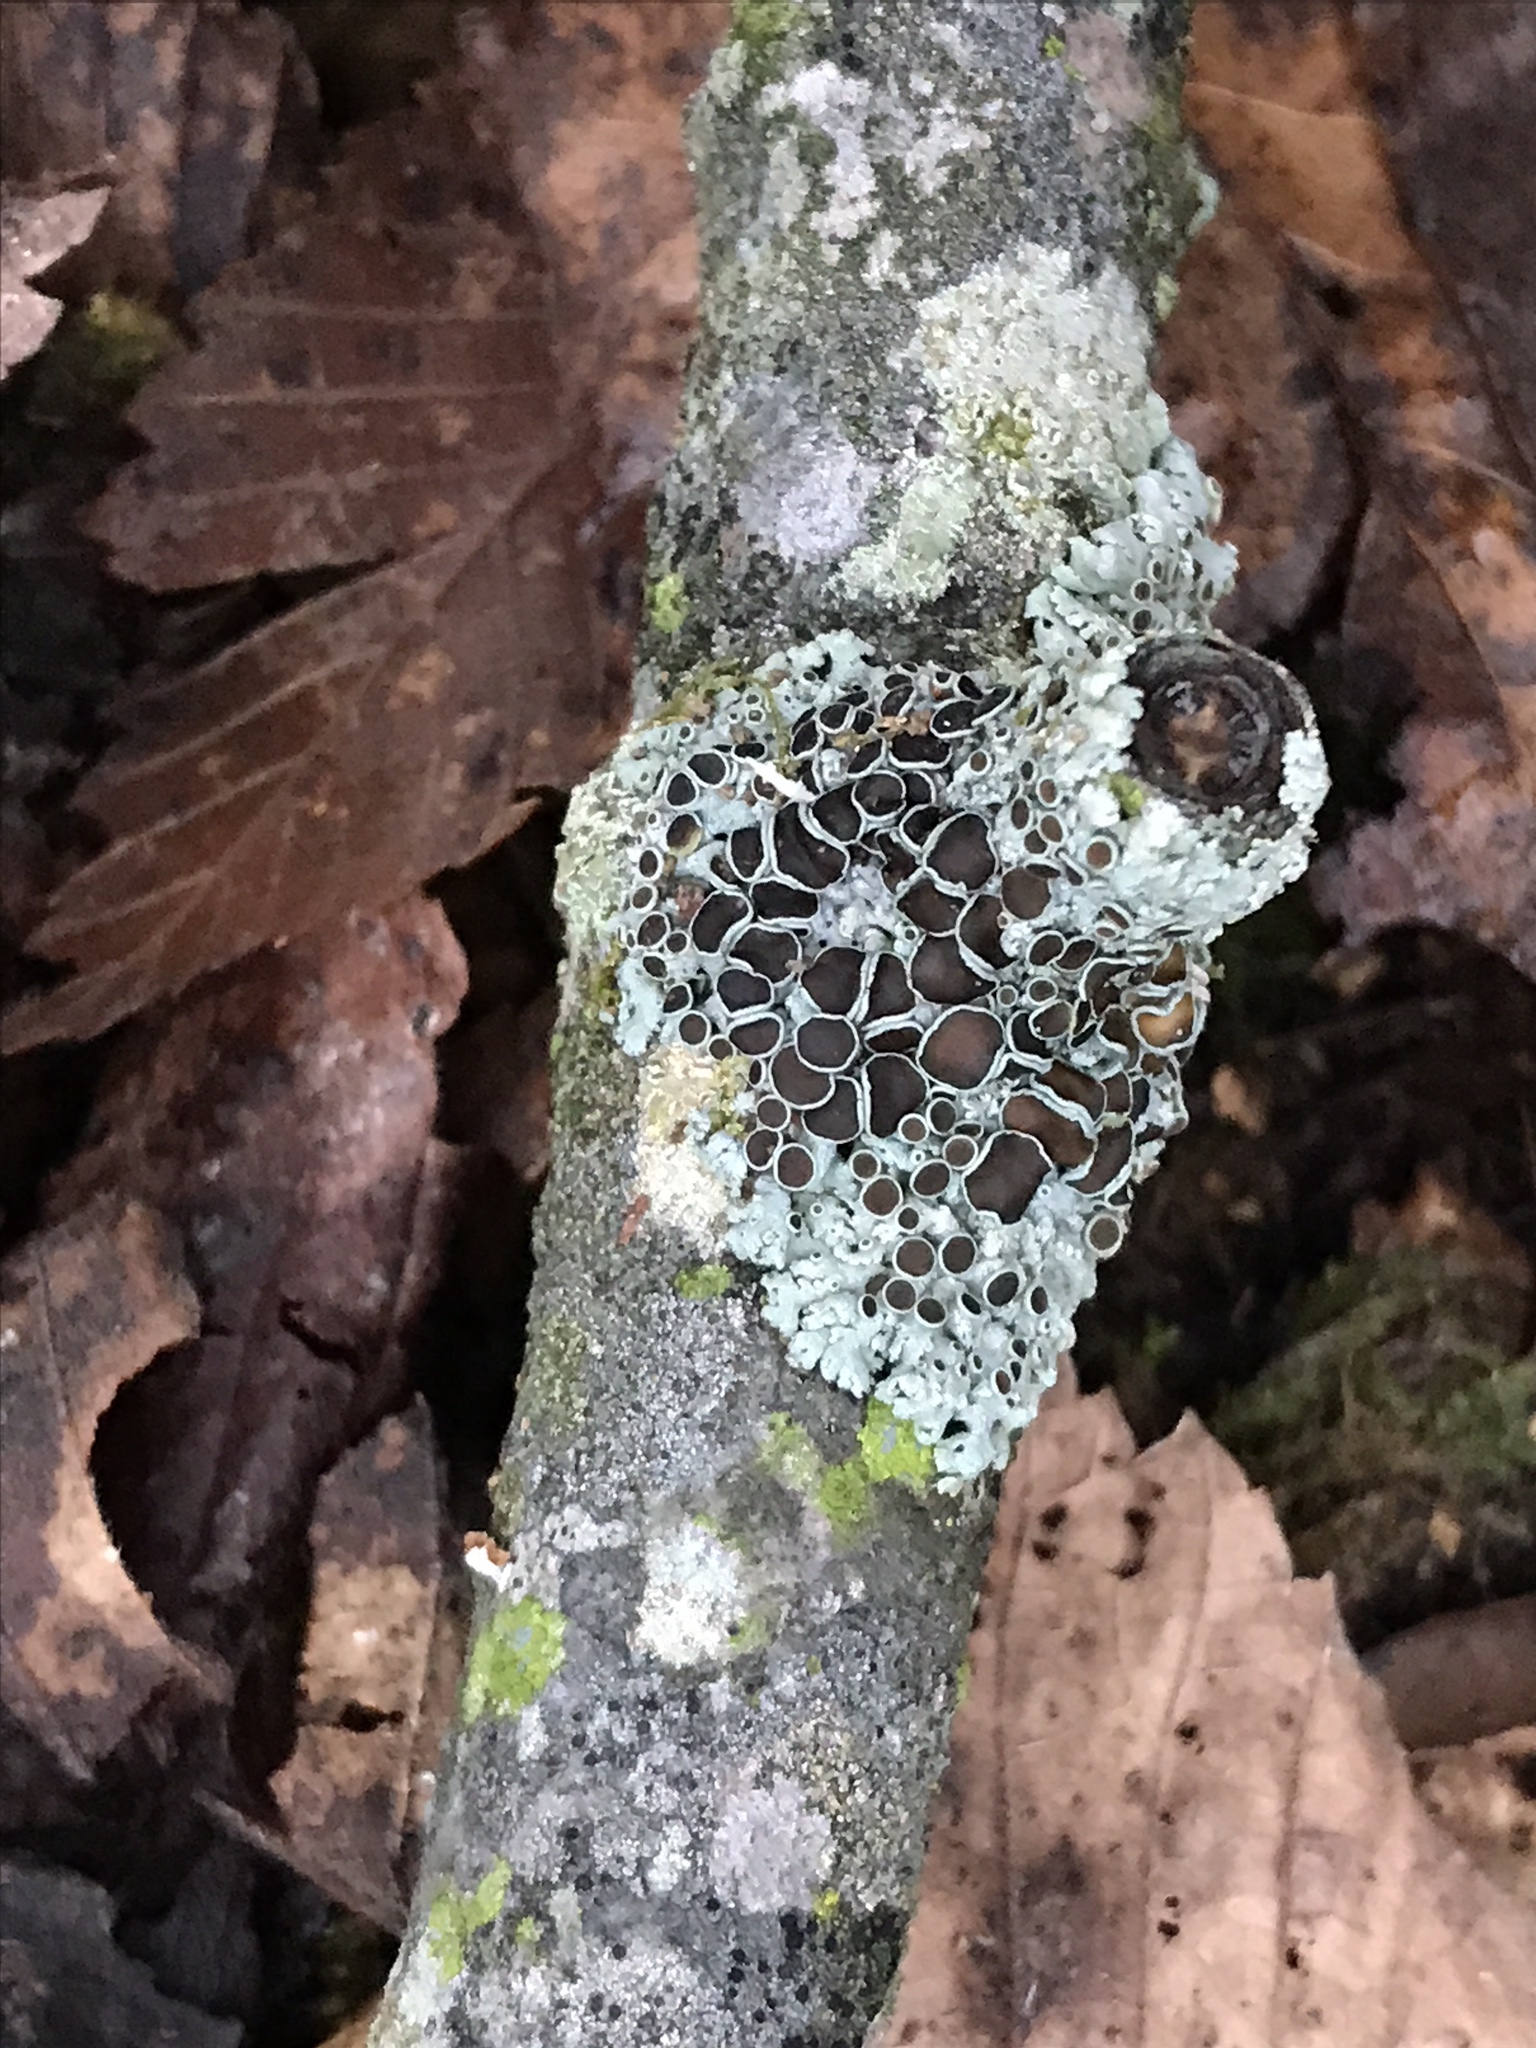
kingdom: Fungi
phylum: Ascomycota
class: Lecanoromycetes
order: Caliciales
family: Physciaceae
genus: Physcia
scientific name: Physcia millegrana
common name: Rosette lichen
